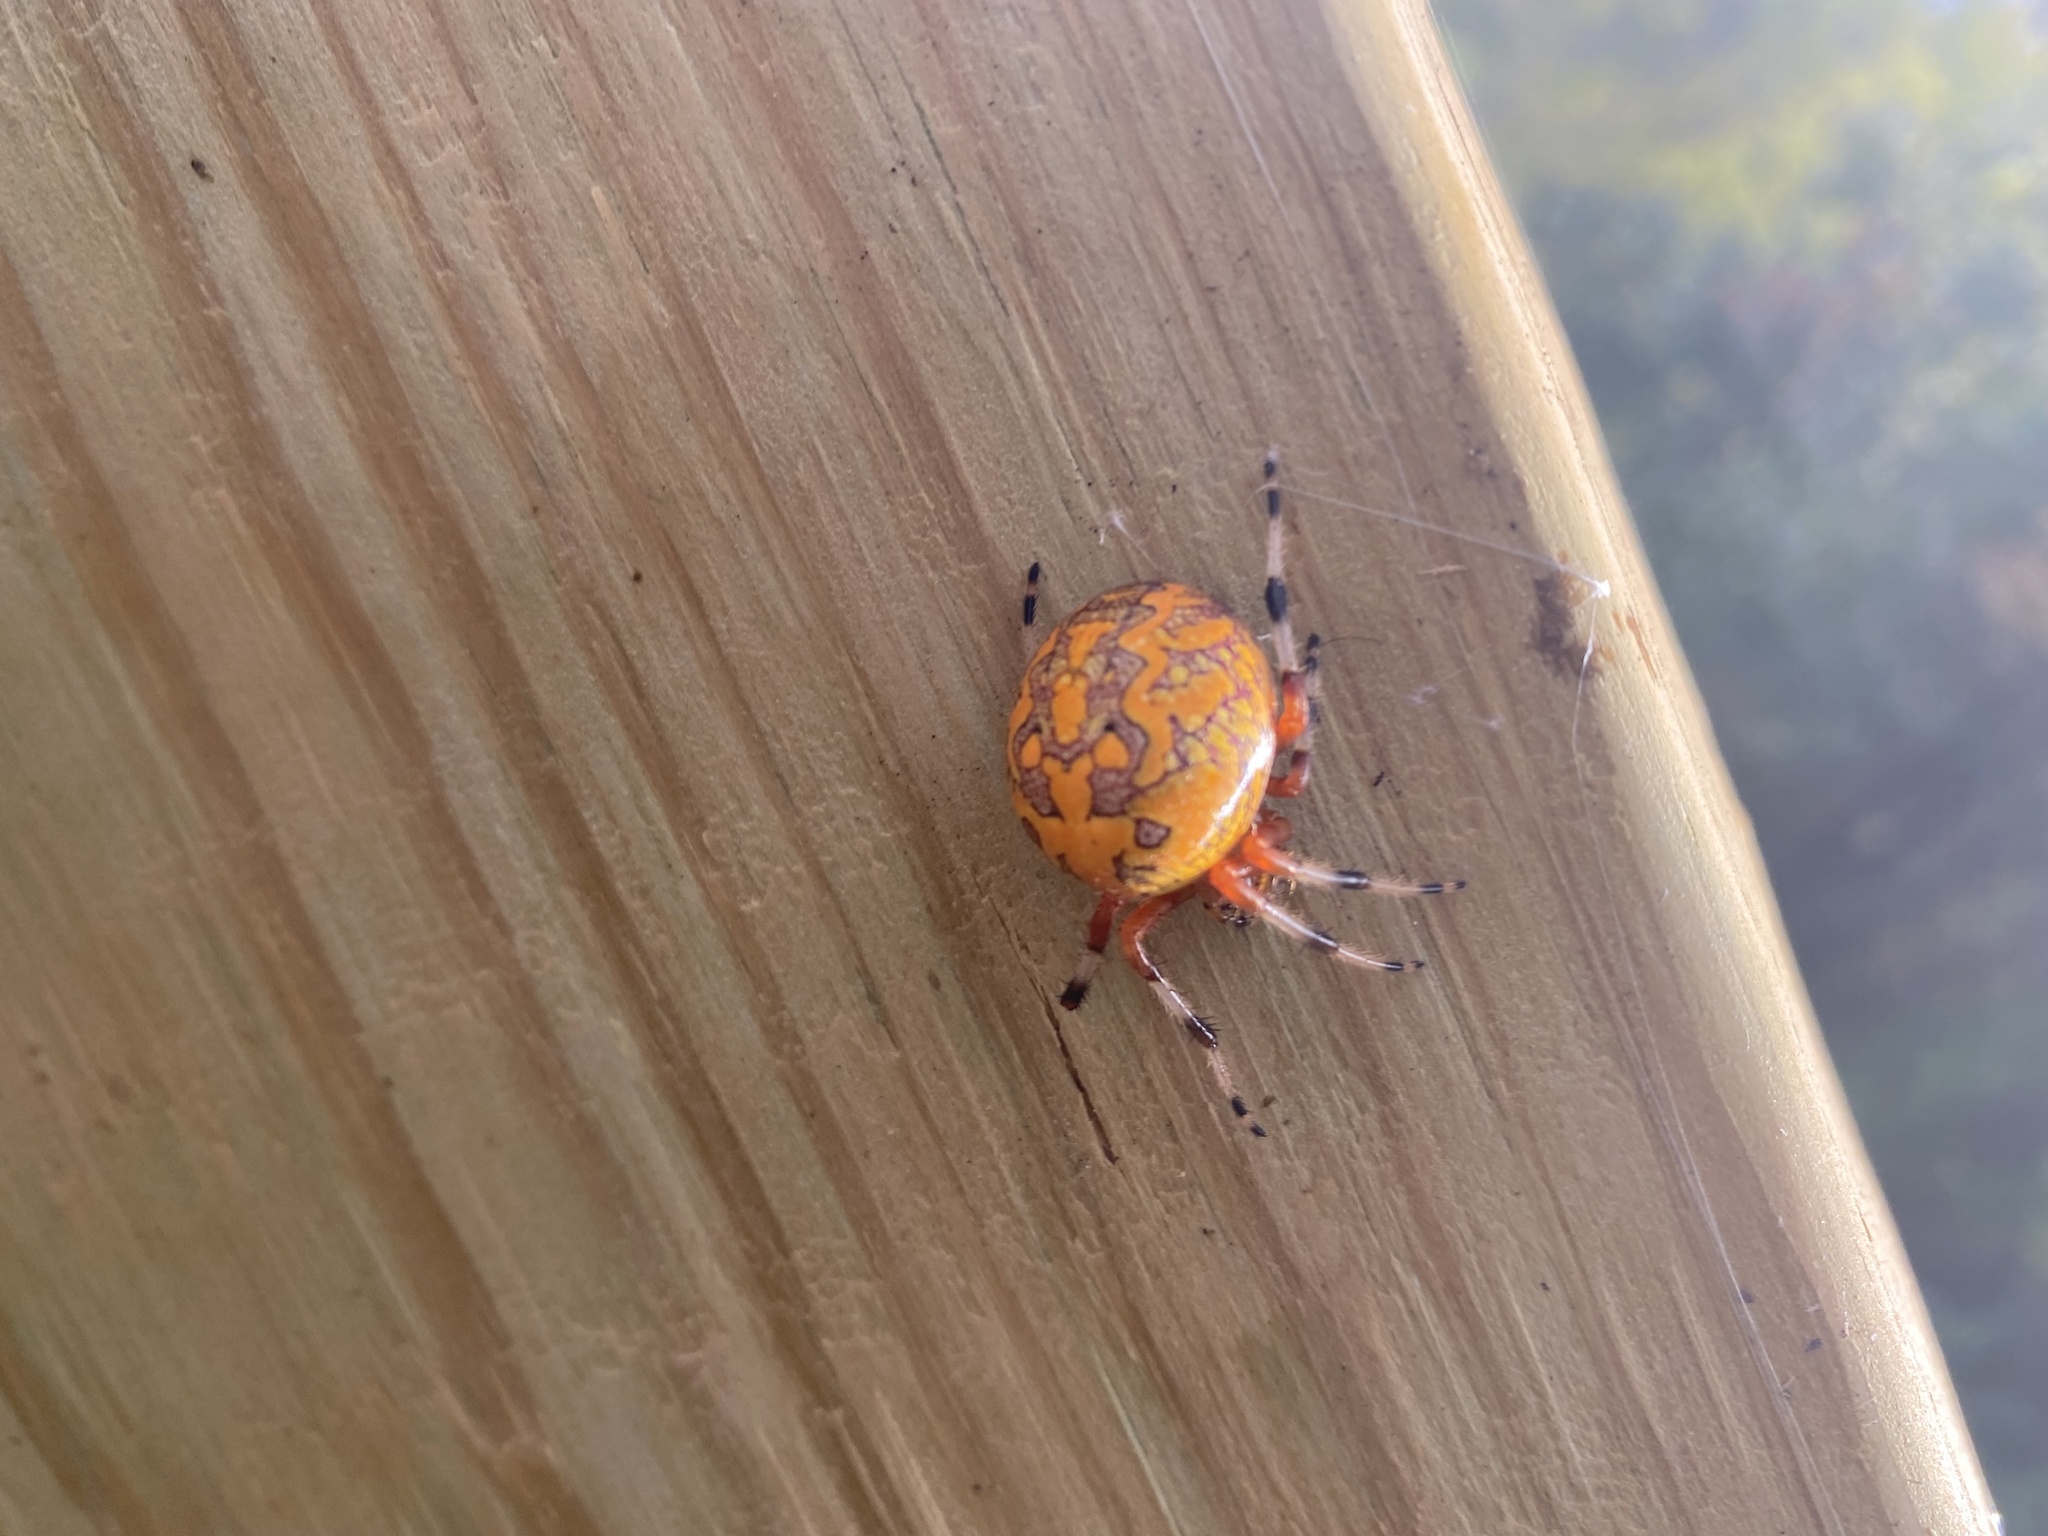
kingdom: Animalia
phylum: Arthropoda
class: Arachnida
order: Araneae
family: Araneidae
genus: Araneus
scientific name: Araneus marmoreus
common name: Marbled orbweaver
